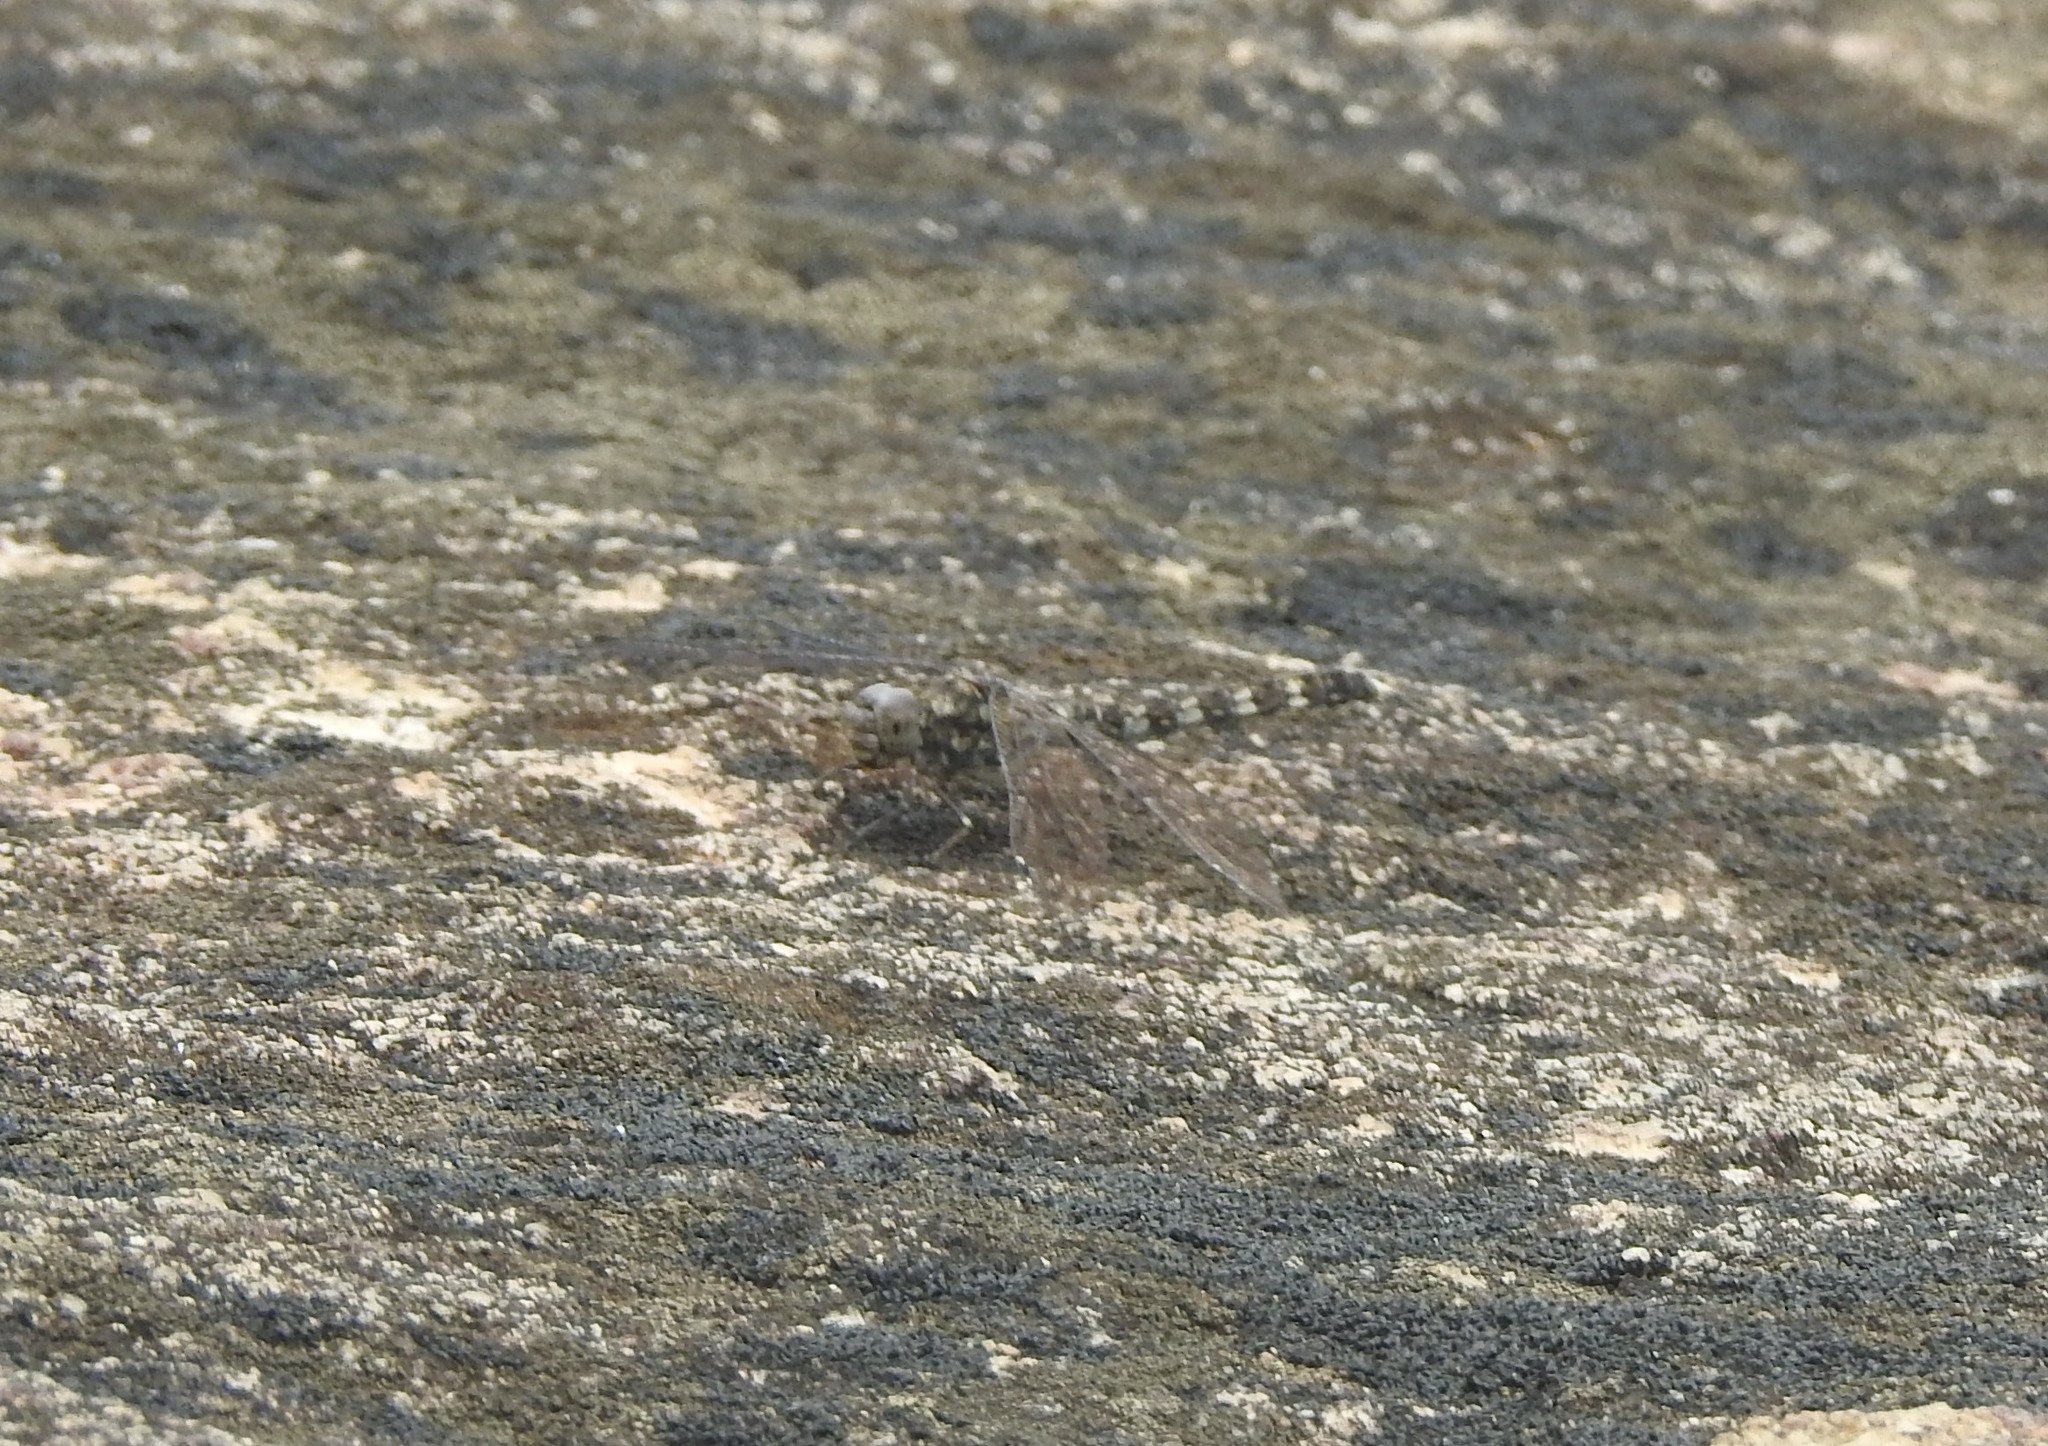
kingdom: Animalia
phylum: Arthropoda
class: Insecta
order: Odonata
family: Libellulidae
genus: Bradinopyga
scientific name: Bradinopyga geminata
